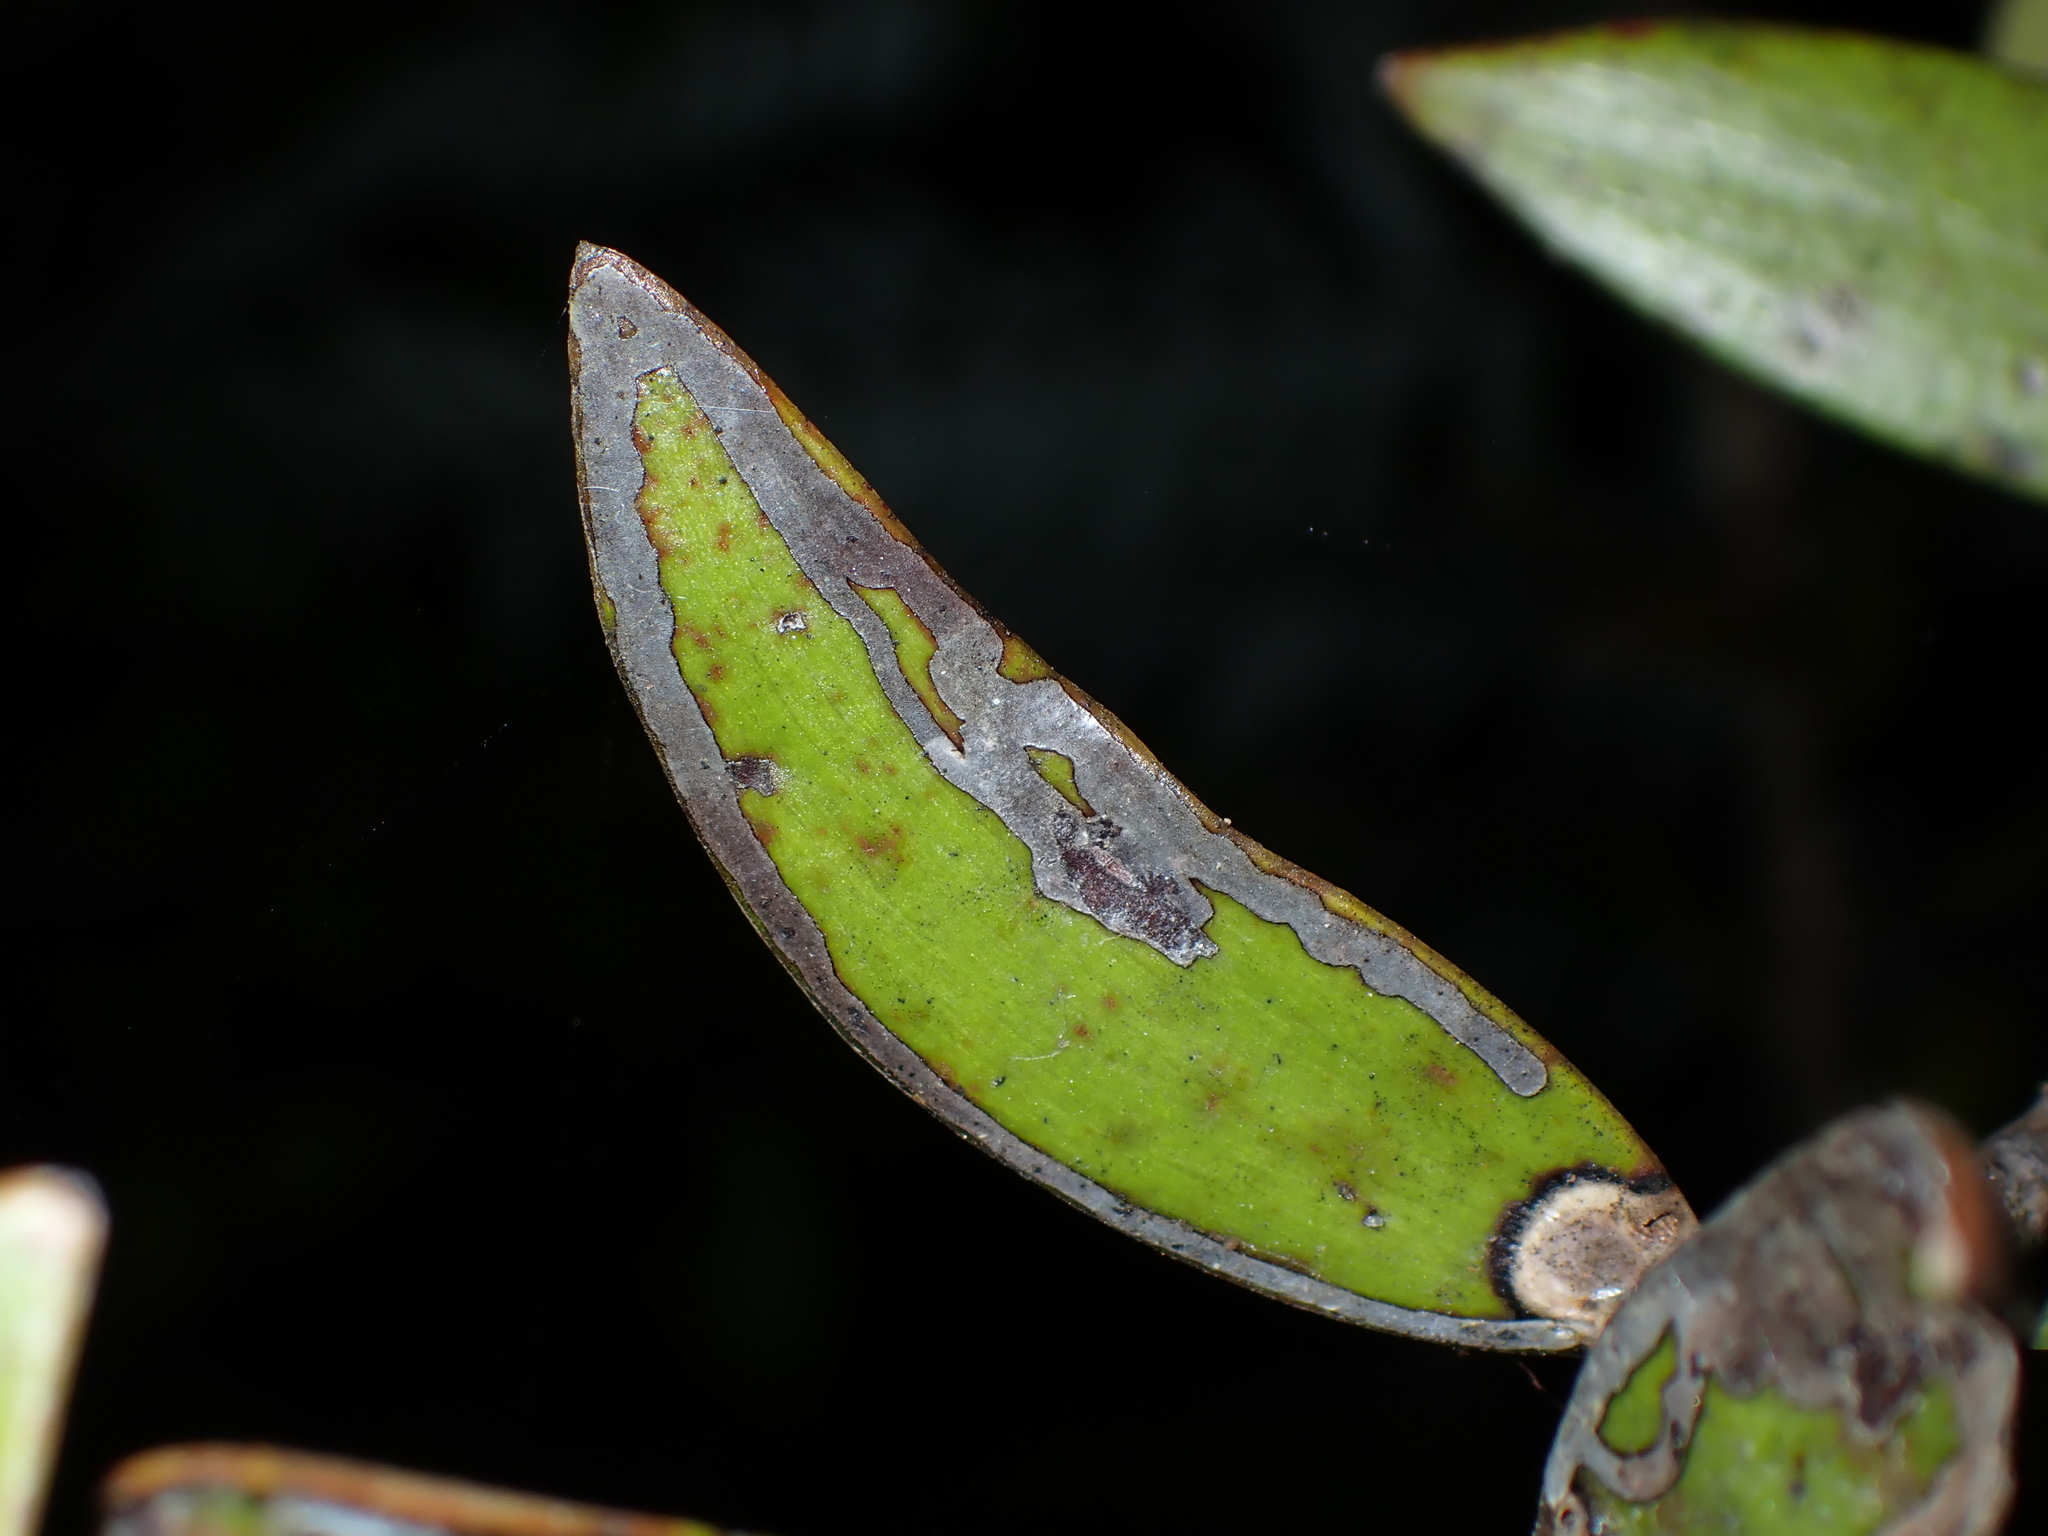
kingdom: Animalia
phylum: Arthropoda
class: Insecta
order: Lepidoptera
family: Gracillariidae
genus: Acrocercops
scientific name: Acrocercops leucotoma
